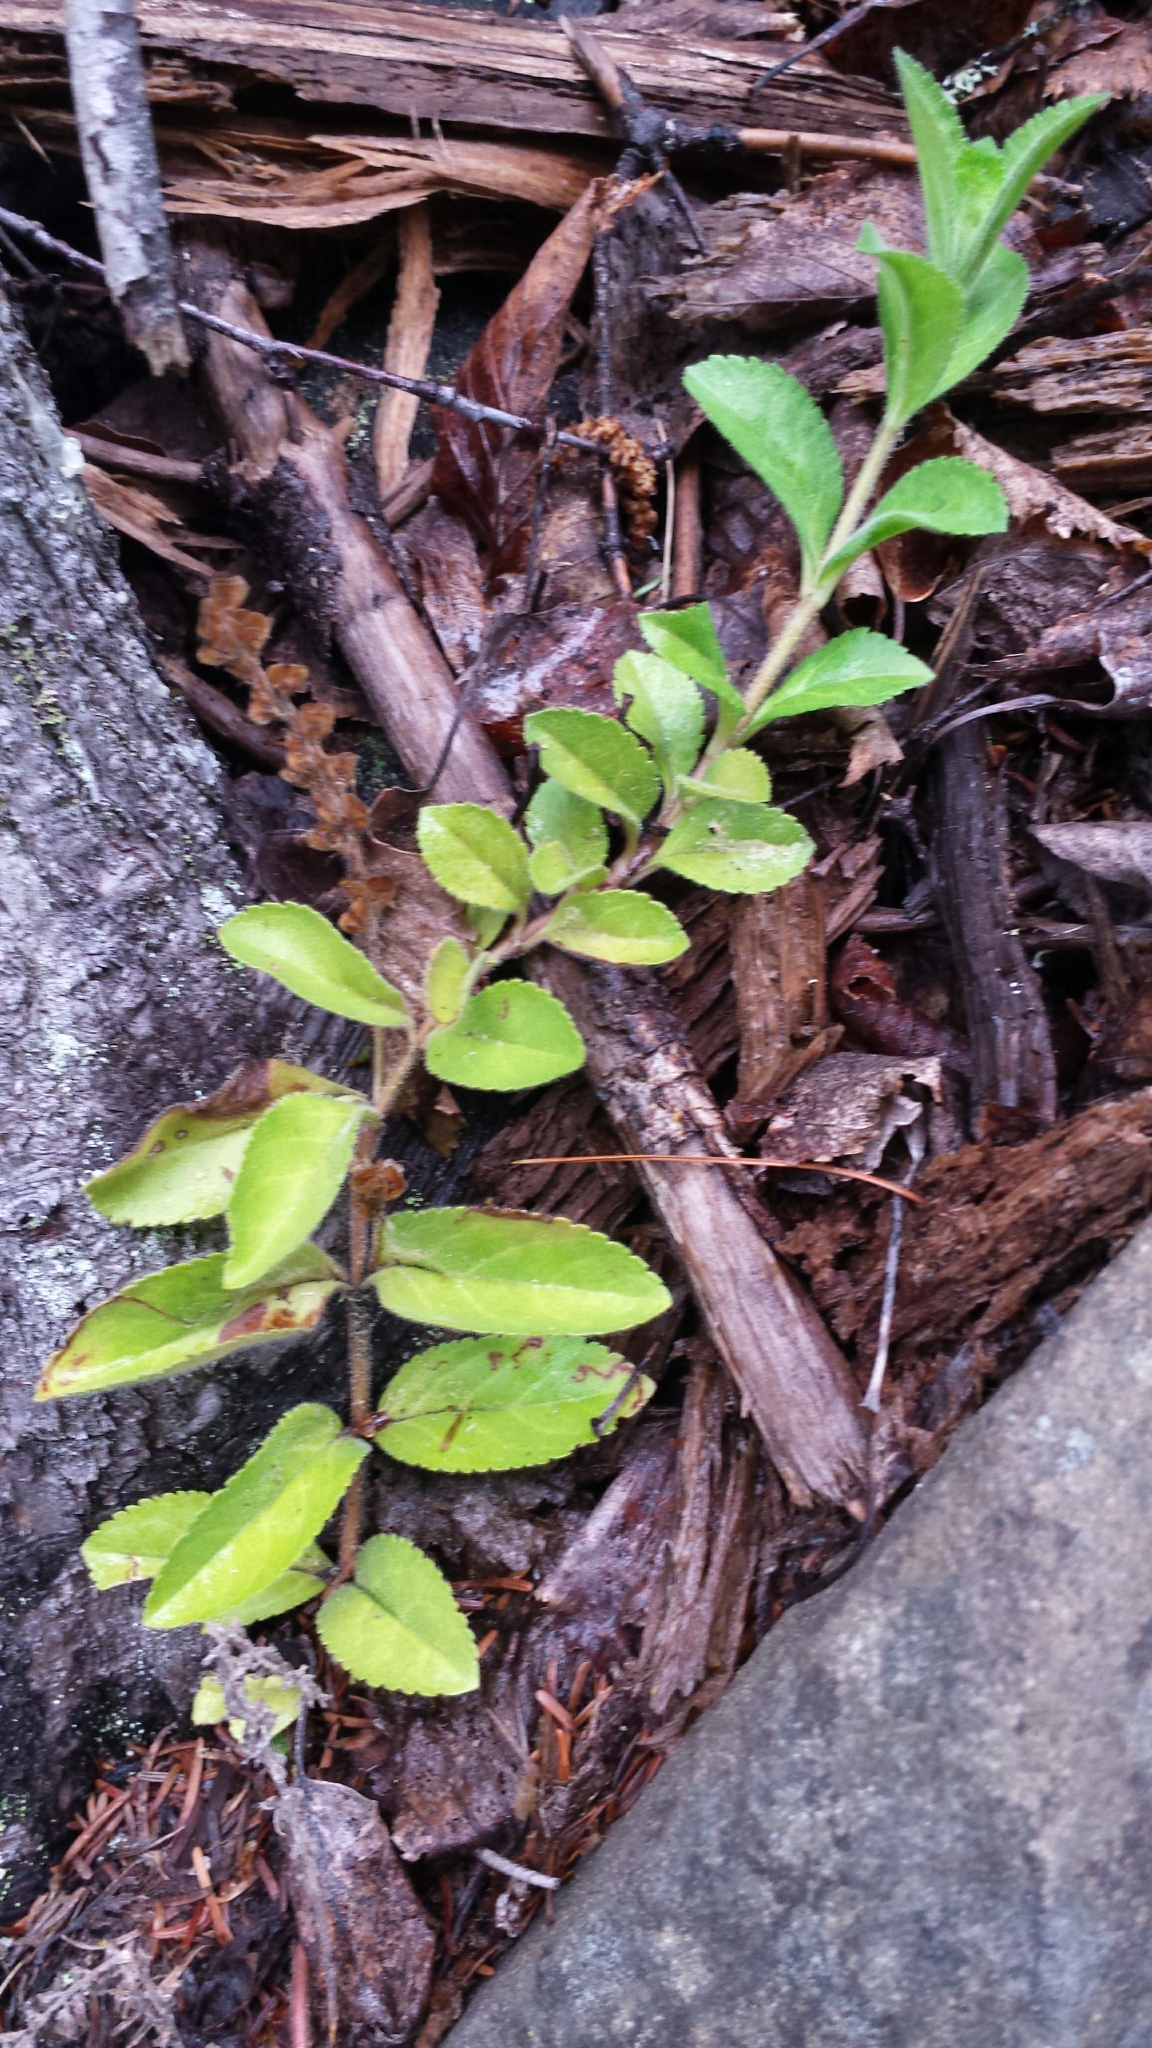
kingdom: Plantae
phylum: Tracheophyta
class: Magnoliopsida
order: Lamiales
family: Plantaginaceae
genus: Veronica
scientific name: Veronica officinalis
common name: Common speedwell
